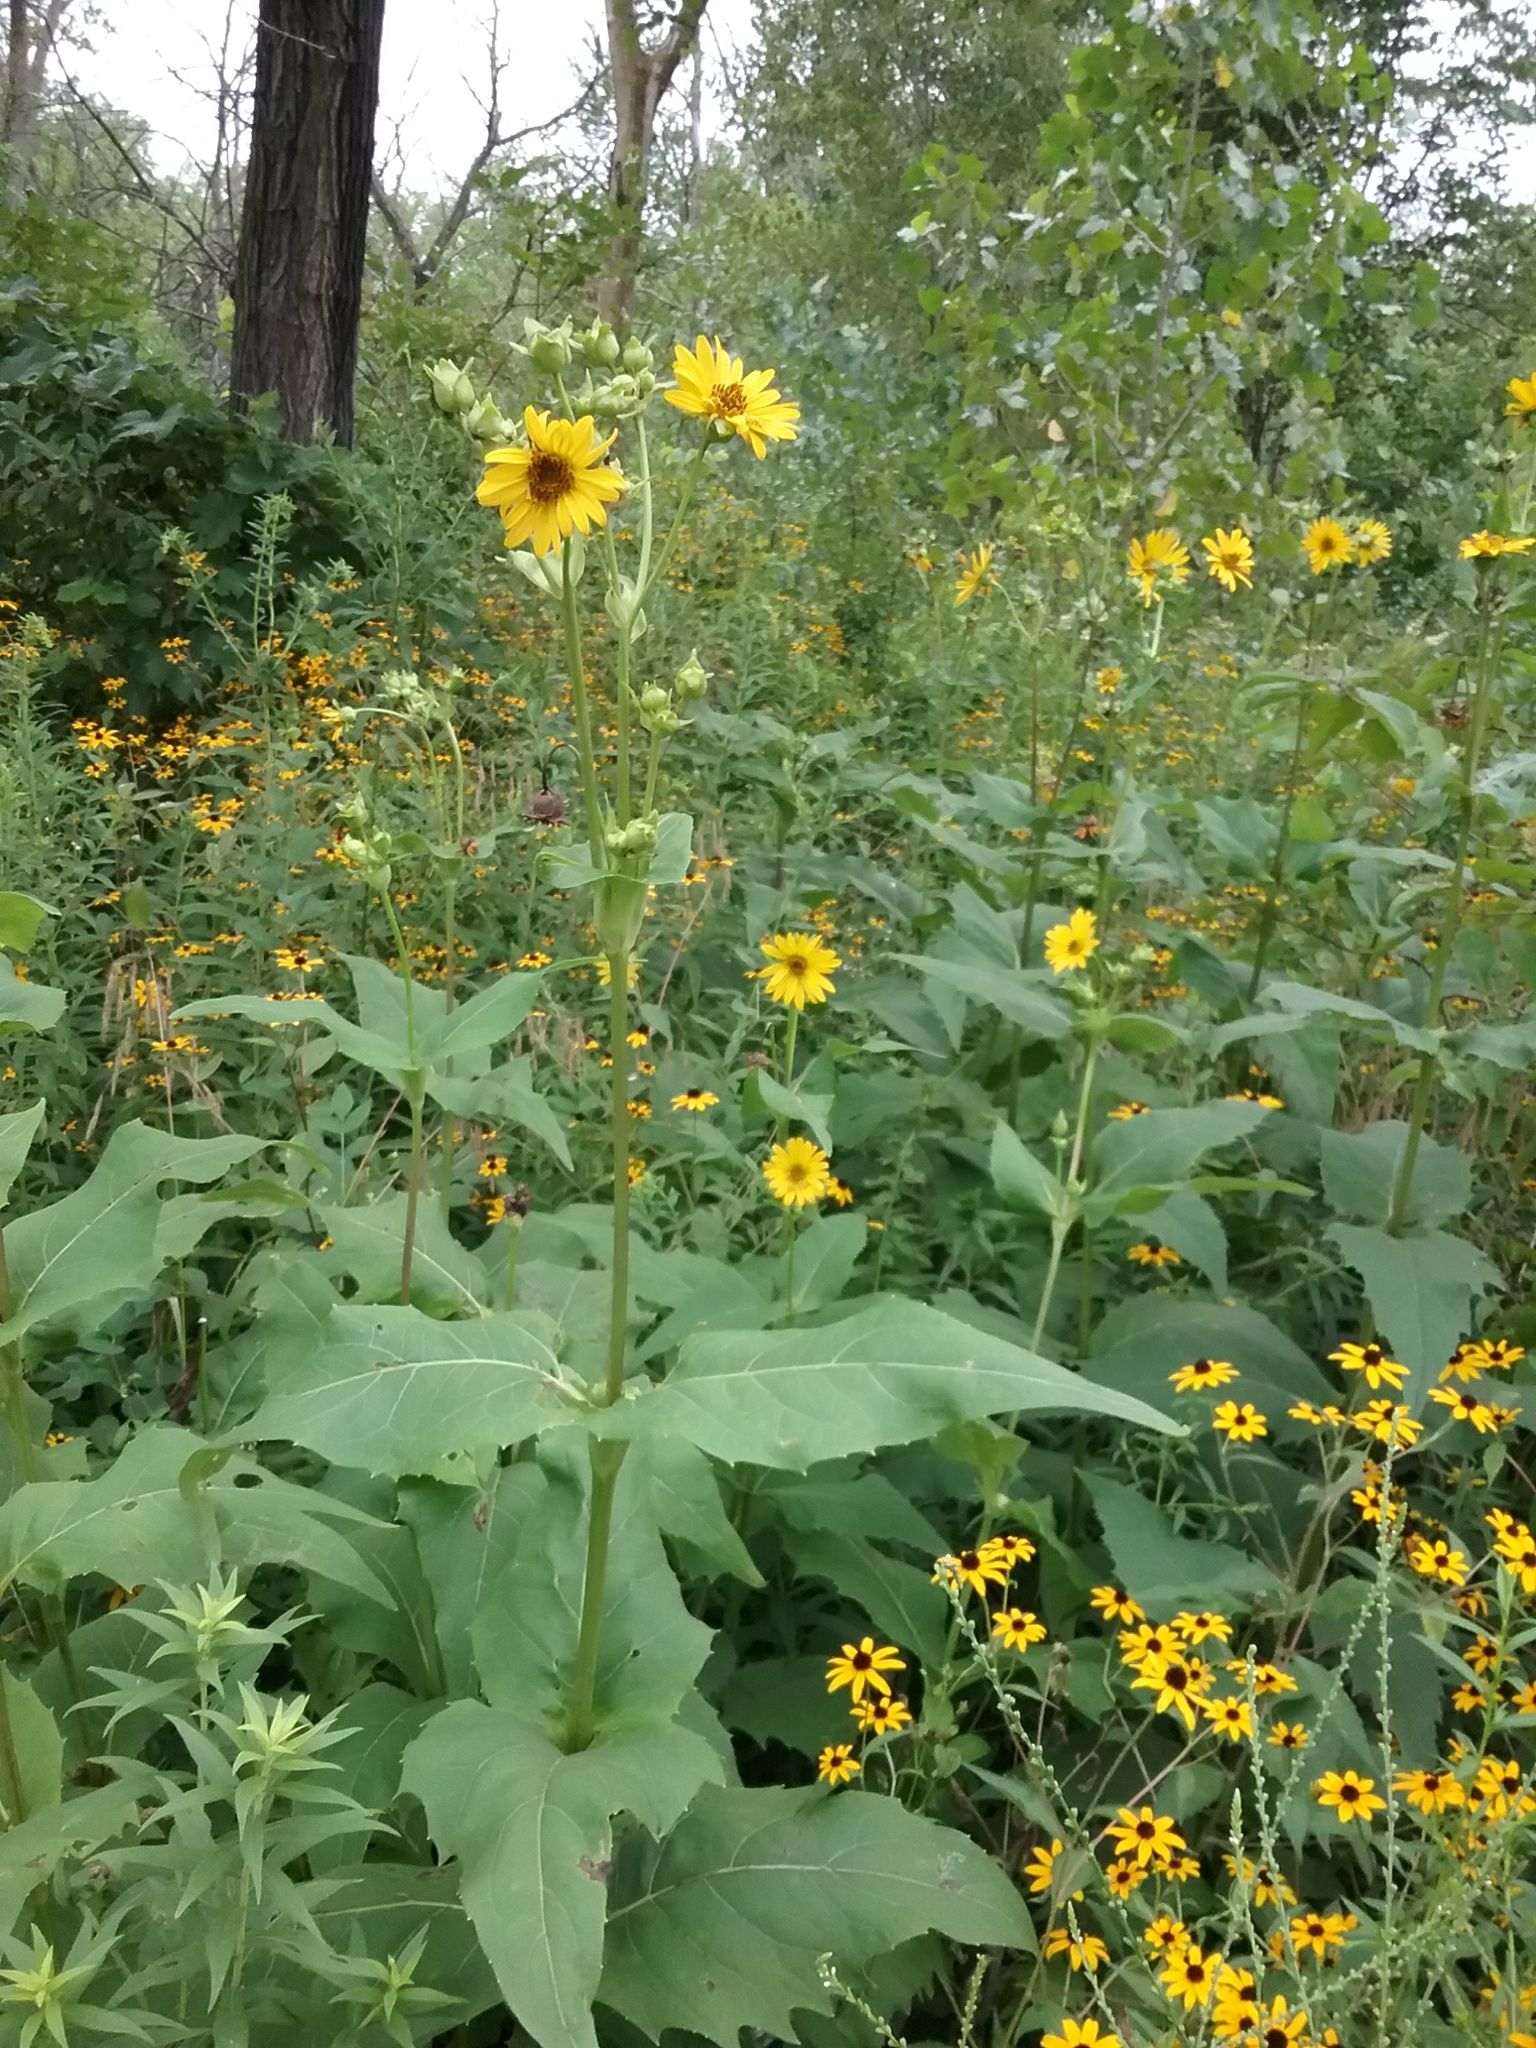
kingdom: Plantae
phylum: Tracheophyta
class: Magnoliopsida
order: Asterales
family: Asteraceae
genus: Silphium
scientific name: Silphium perfoliatum
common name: Cup-plant
